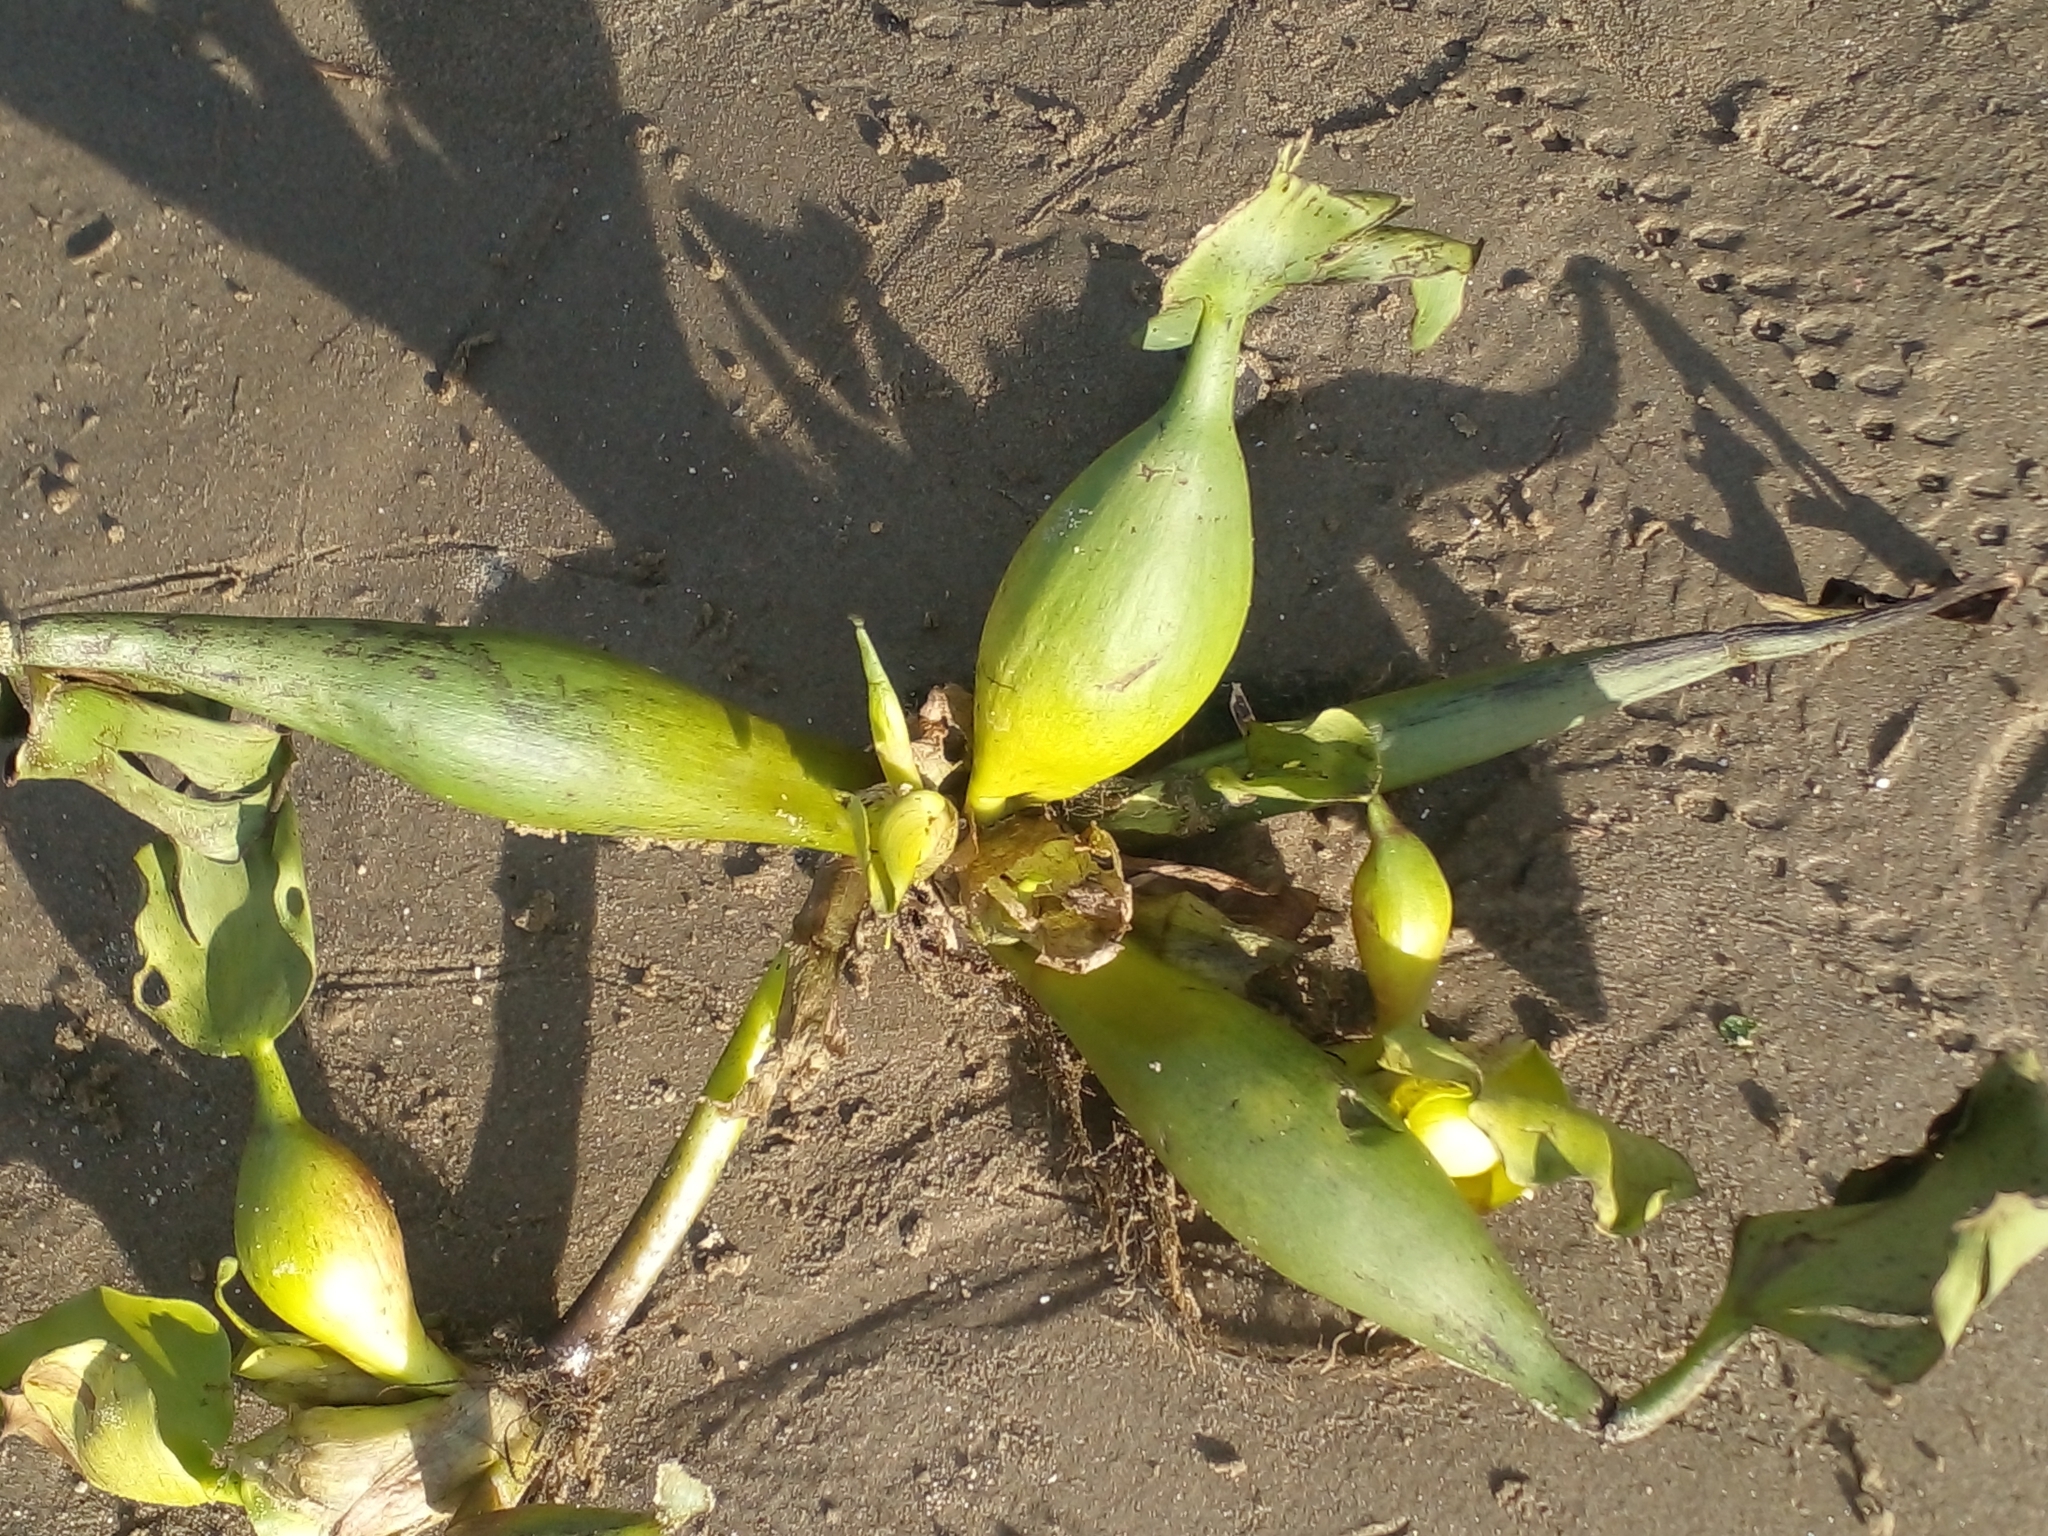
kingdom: Plantae
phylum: Tracheophyta
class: Liliopsida
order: Commelinales
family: Pontederiaceae
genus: Pontederia
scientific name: Pontederia crassipes
